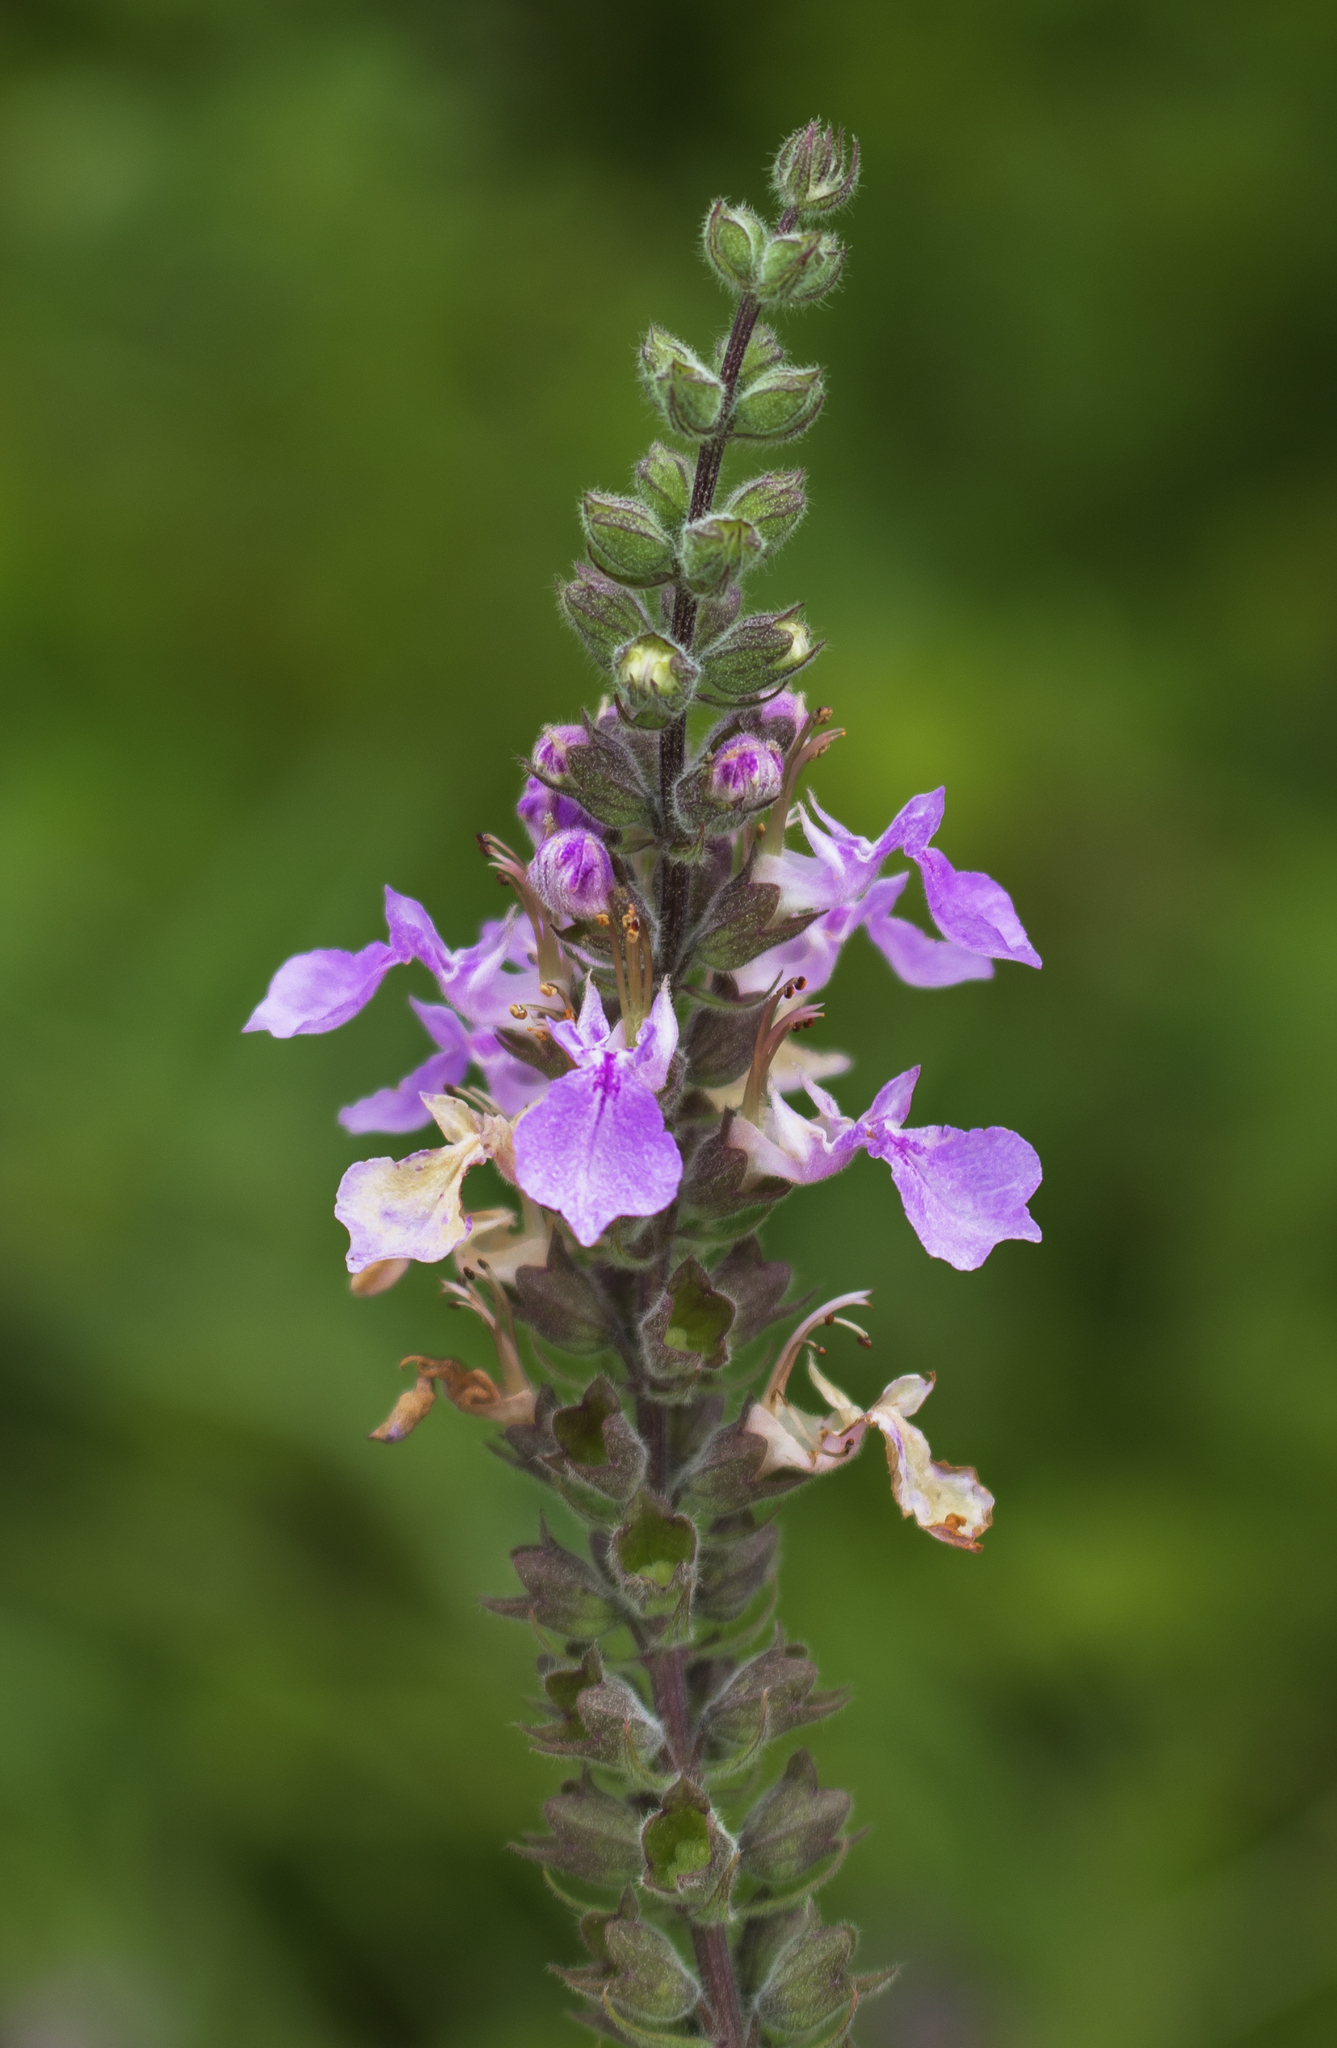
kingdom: Plantae
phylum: Tracheophyta
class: Magnoliopsida
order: Lamiales
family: Lamiaceae
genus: Teucrium
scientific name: Teucrium canadense
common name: American germander
